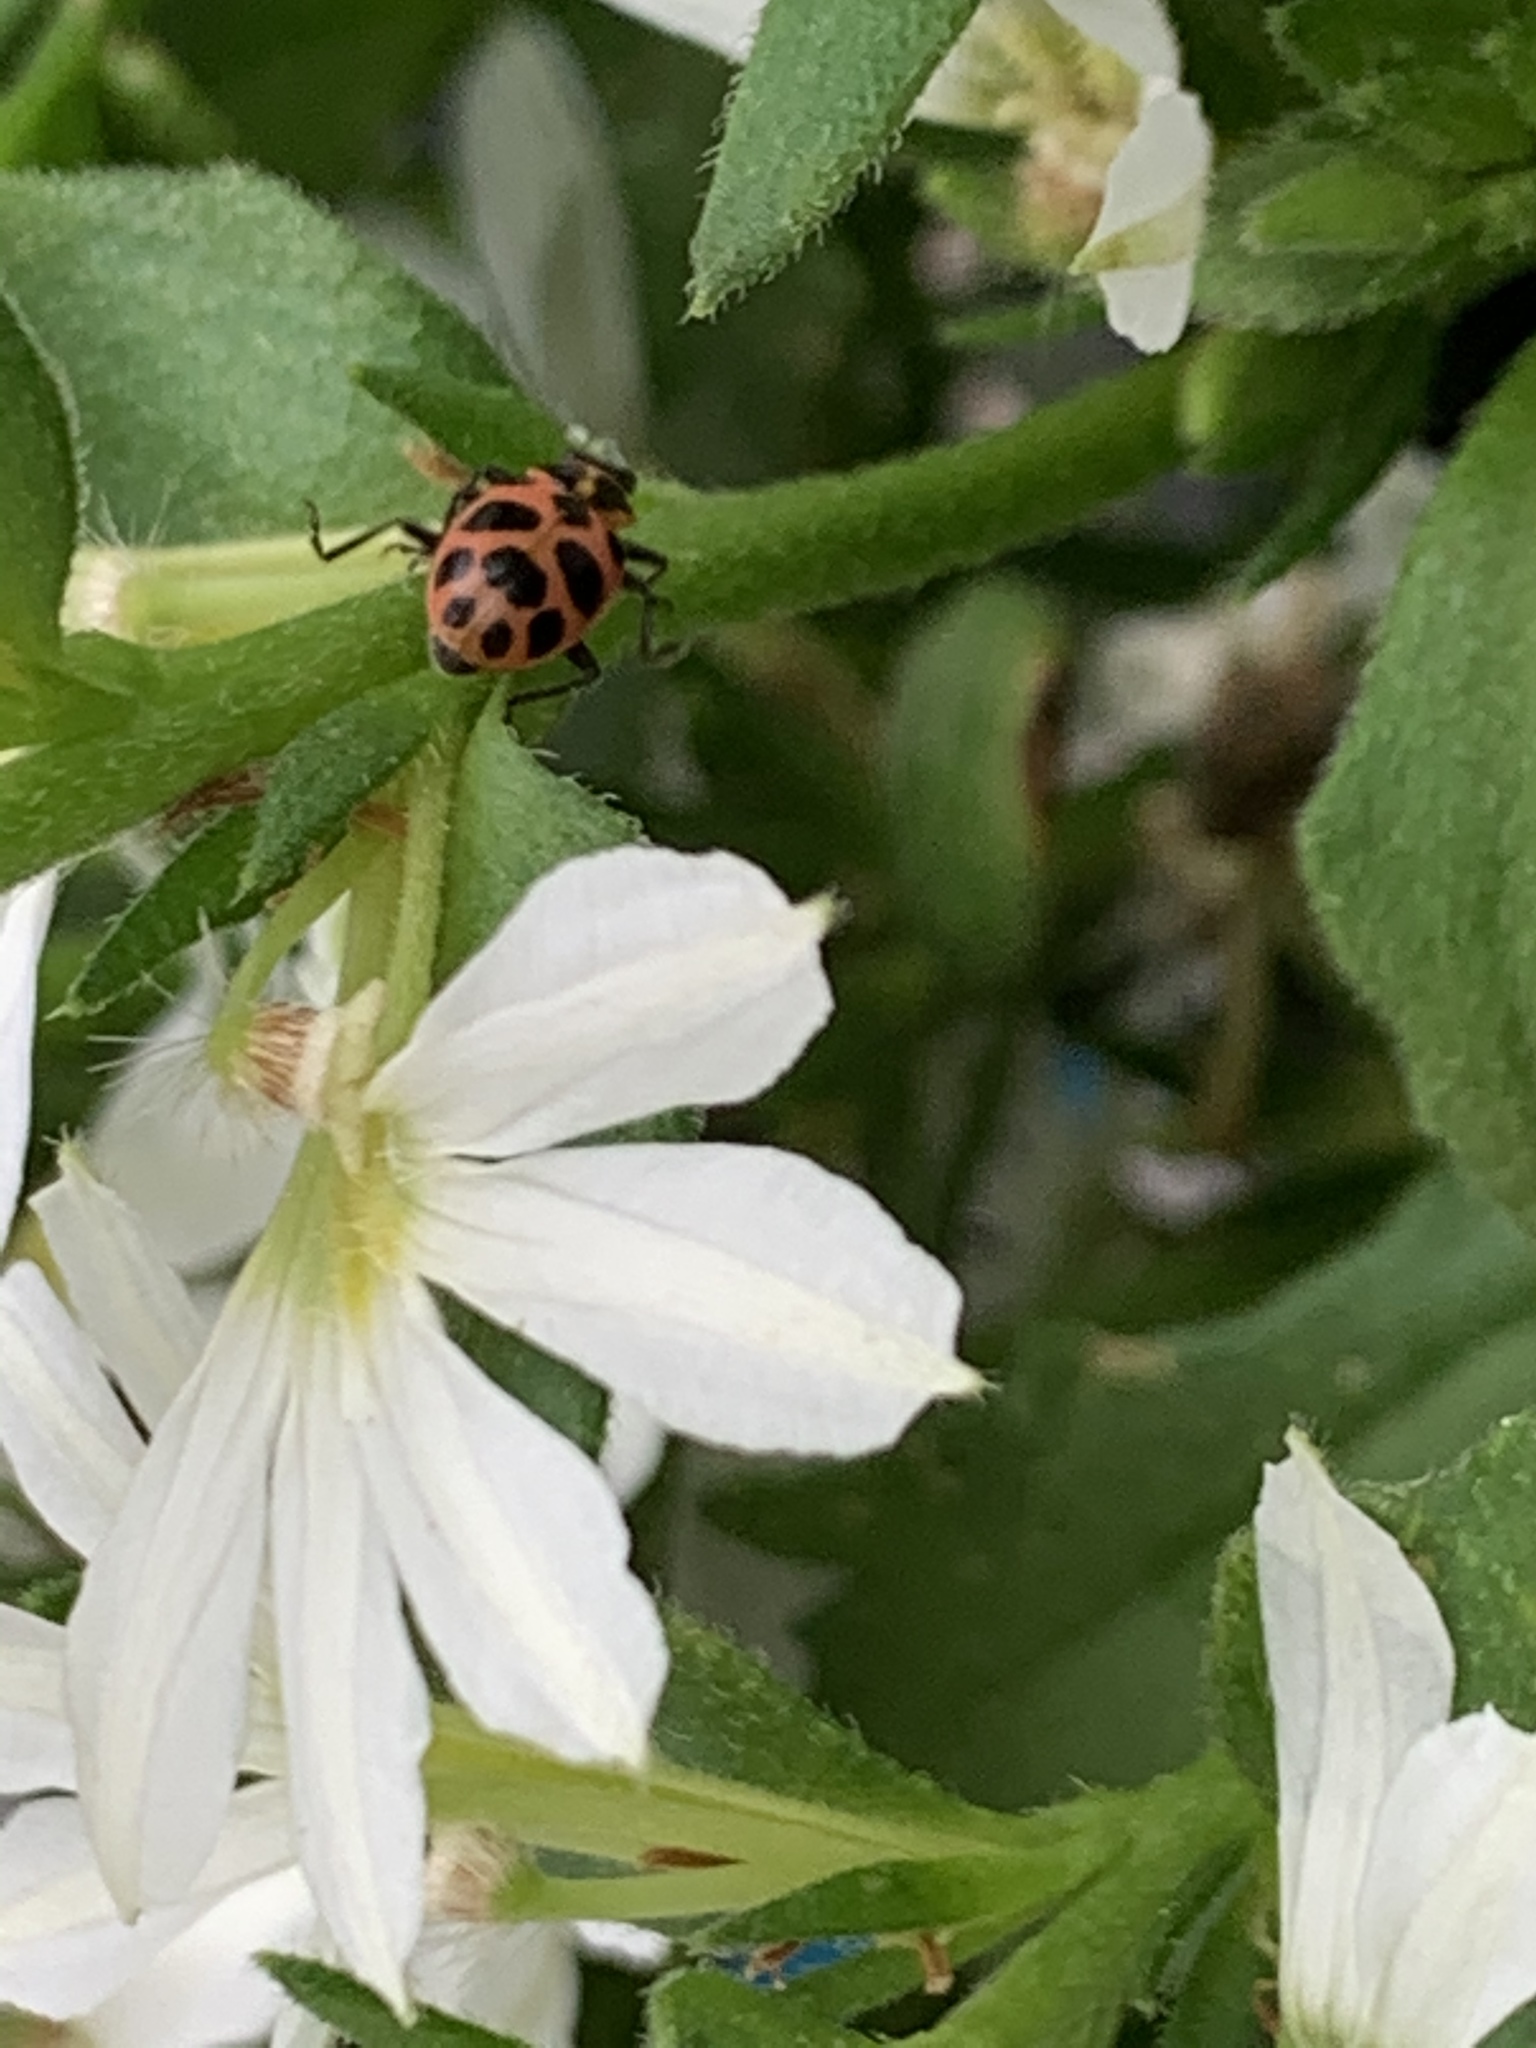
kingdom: Animalia
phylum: Arthropoda
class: Insecta
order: Coleoptera
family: Coccinellidae
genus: Coleomegilla
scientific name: Coleomegilla maculata
